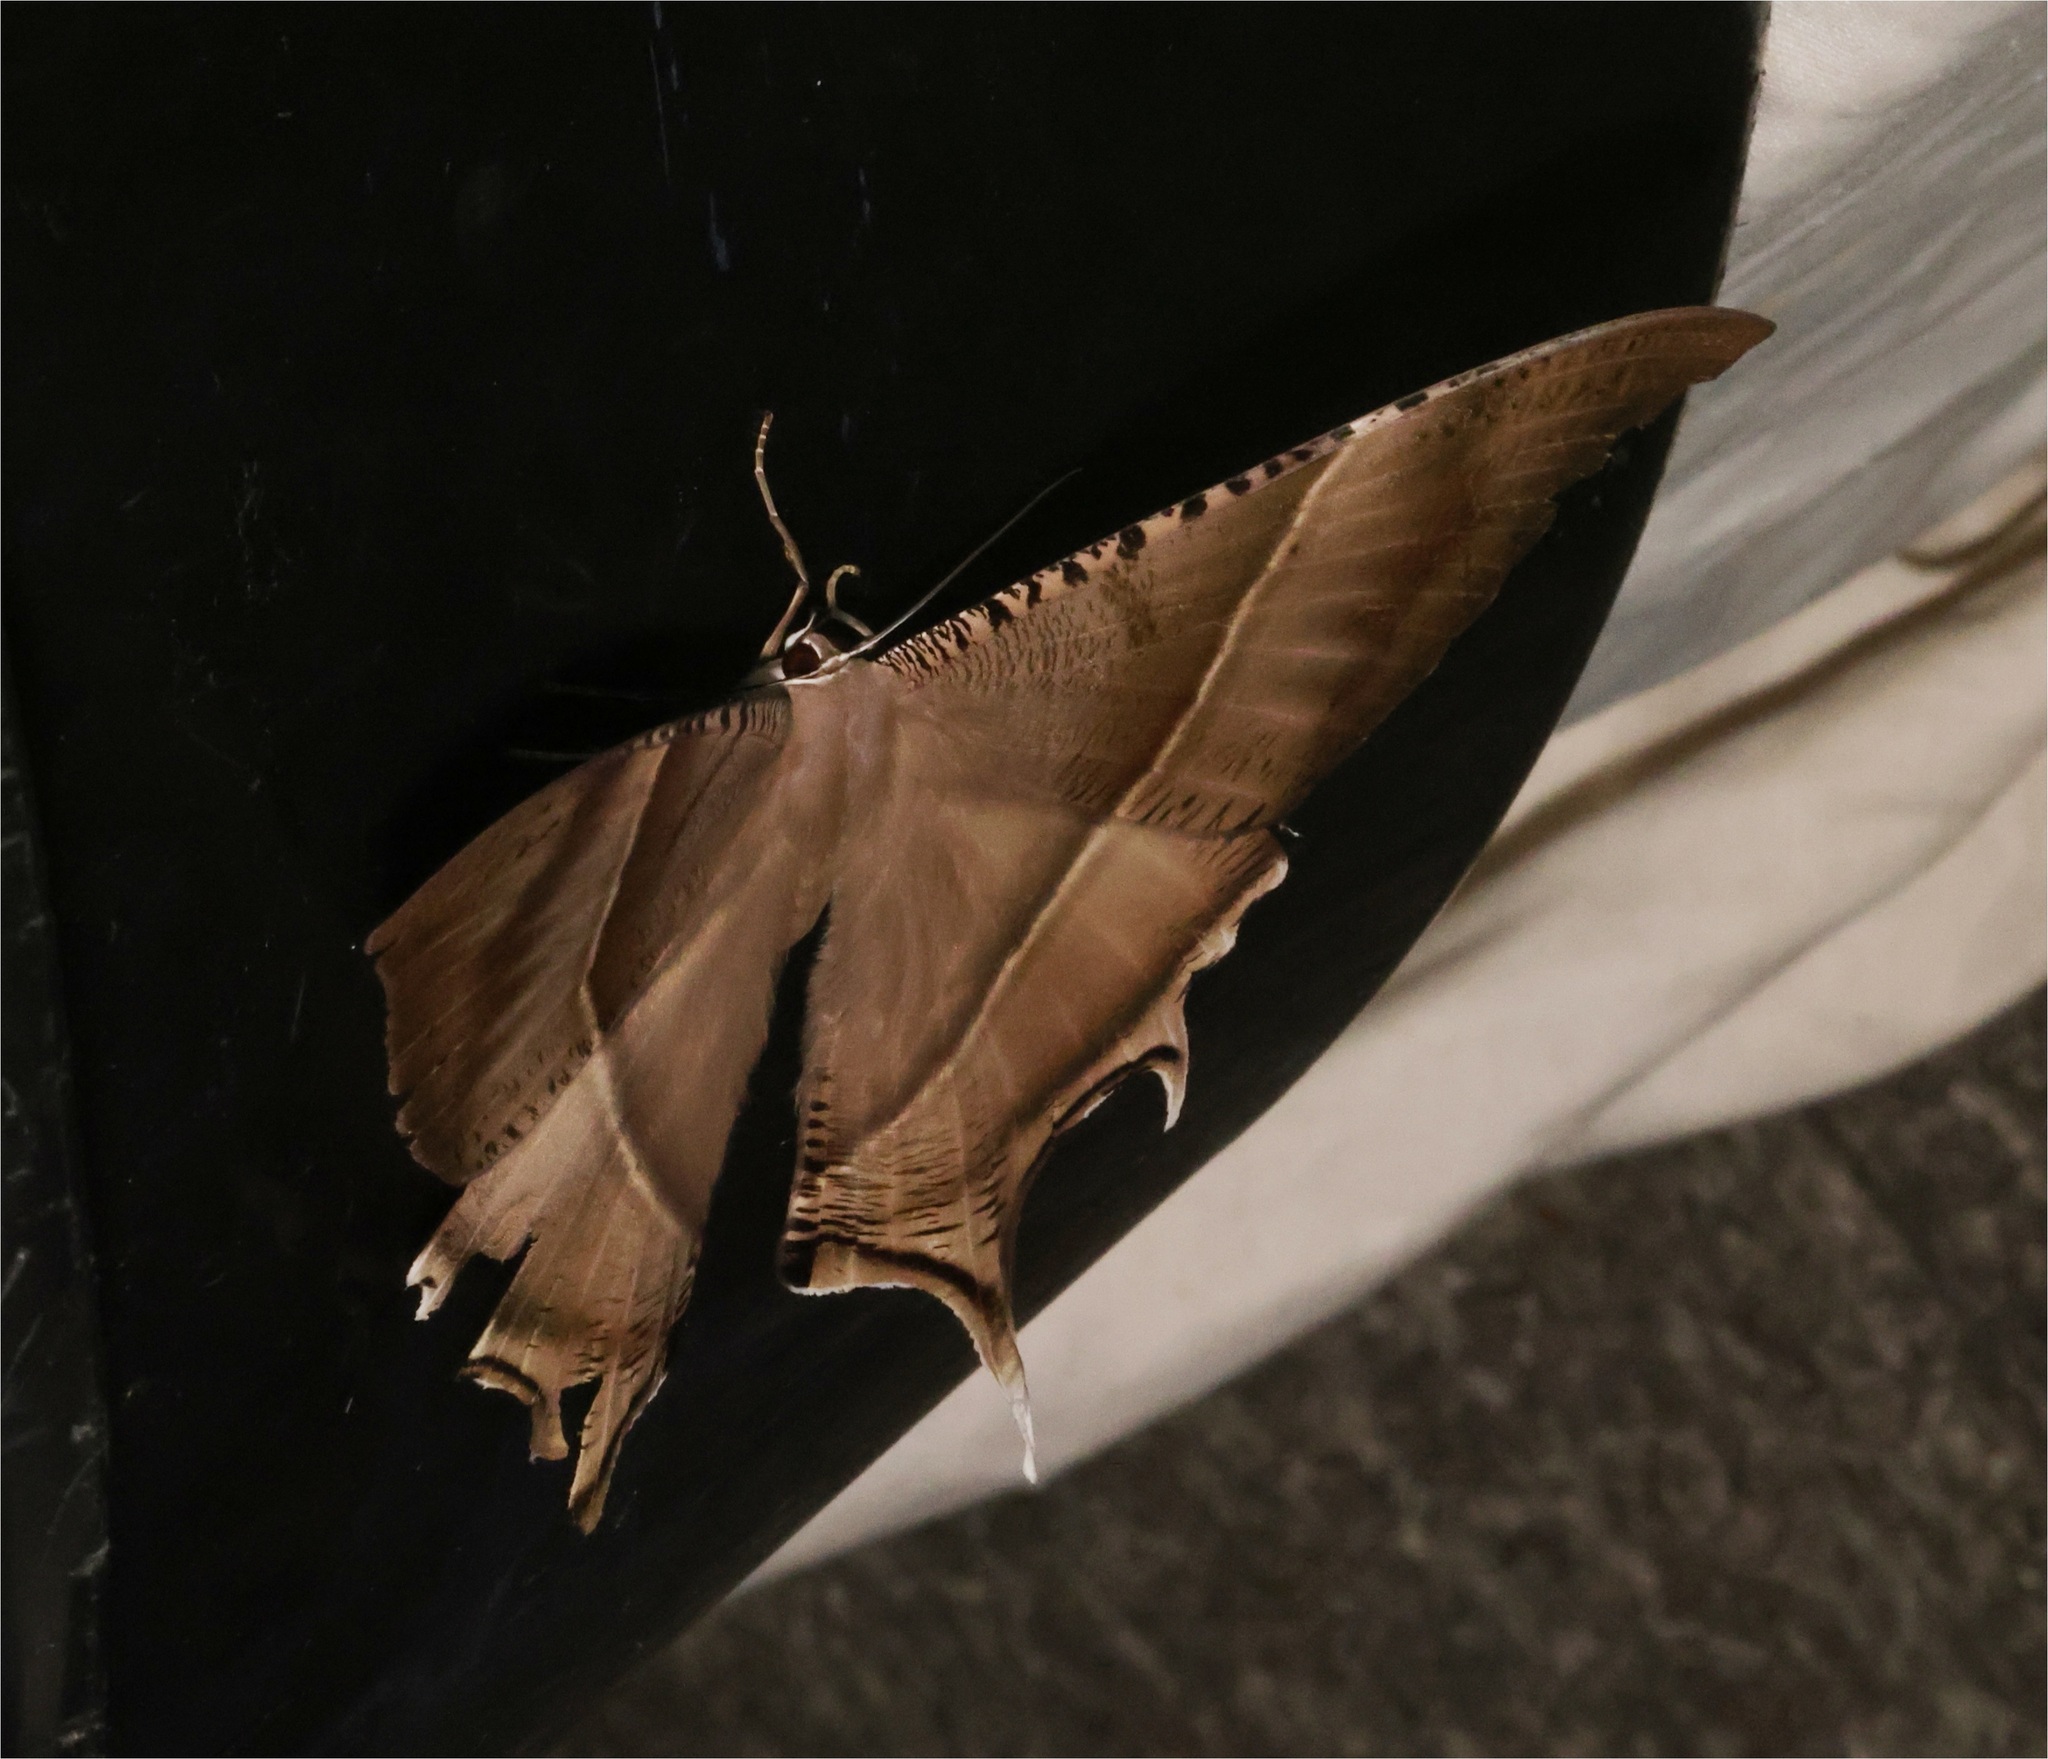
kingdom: Animalia
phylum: Arthropoda
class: Insecta
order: Lepidoptera
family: Uraniidae
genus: Lyssa
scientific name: Lyssa zampa
